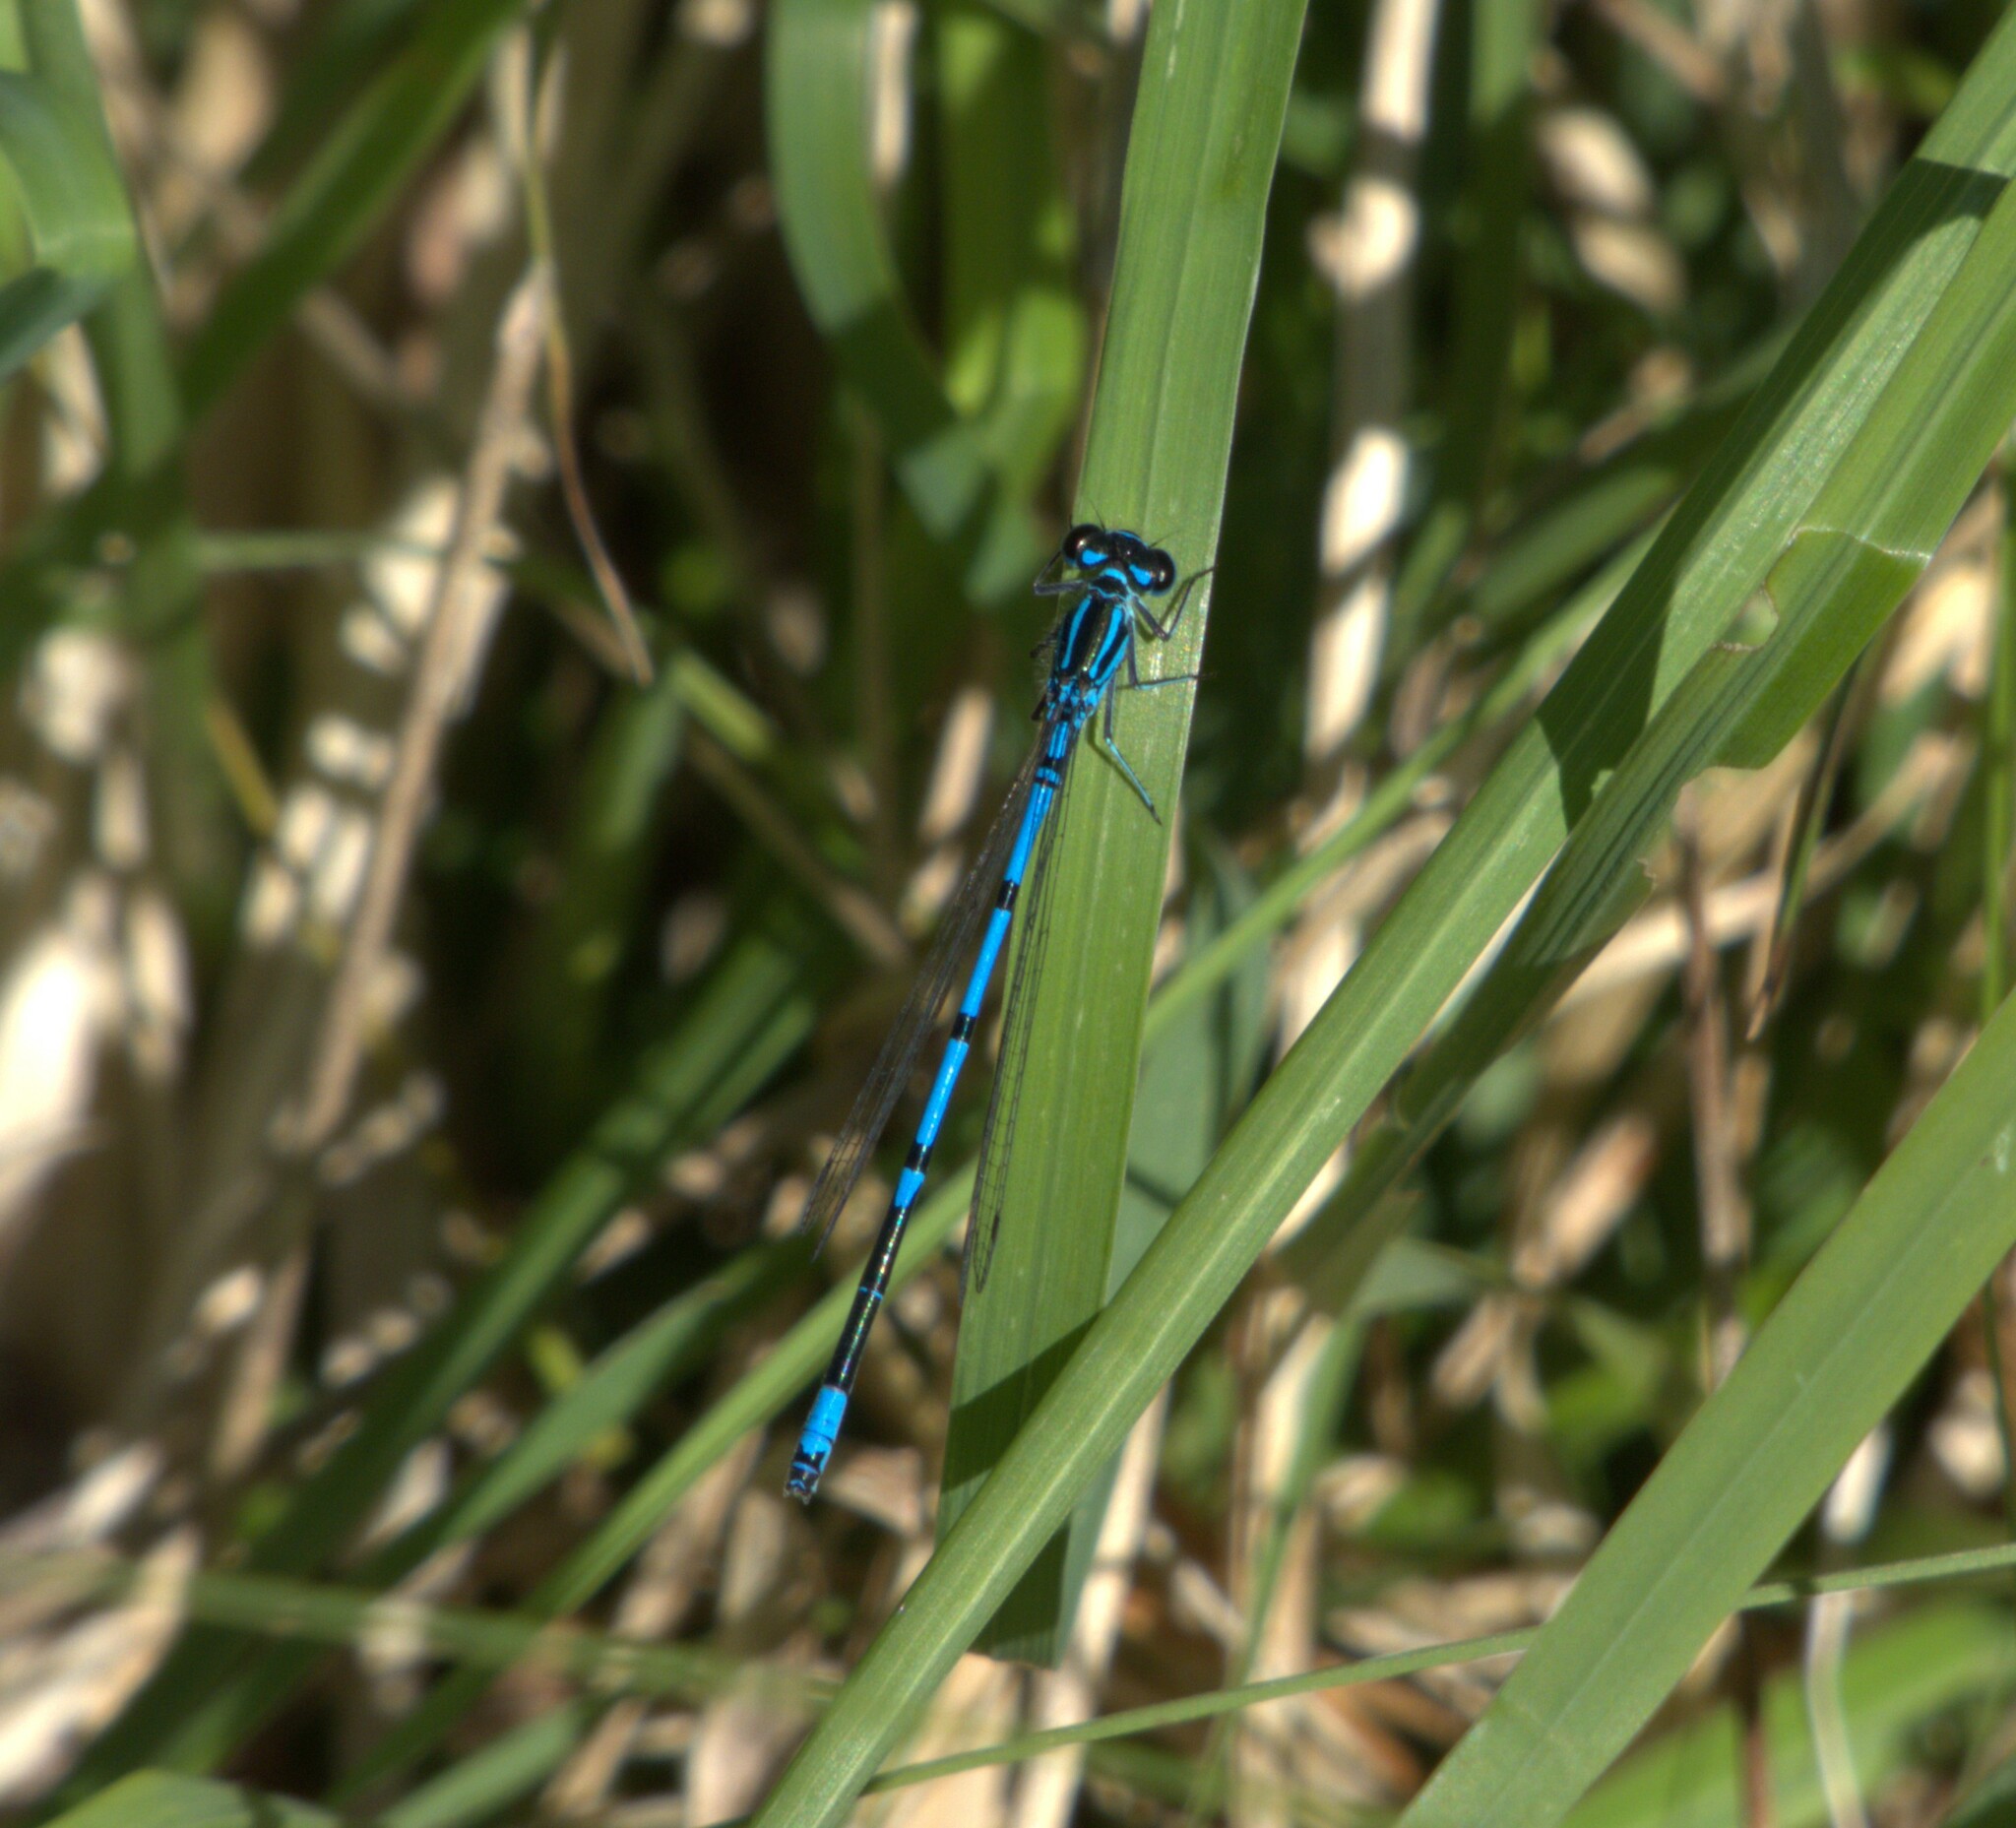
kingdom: Animalia
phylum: Arthropoda
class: Insecta
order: Odonata
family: Coenagrionidae
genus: Coenagrion
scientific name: Coenagrion puella
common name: Azure damselfly
